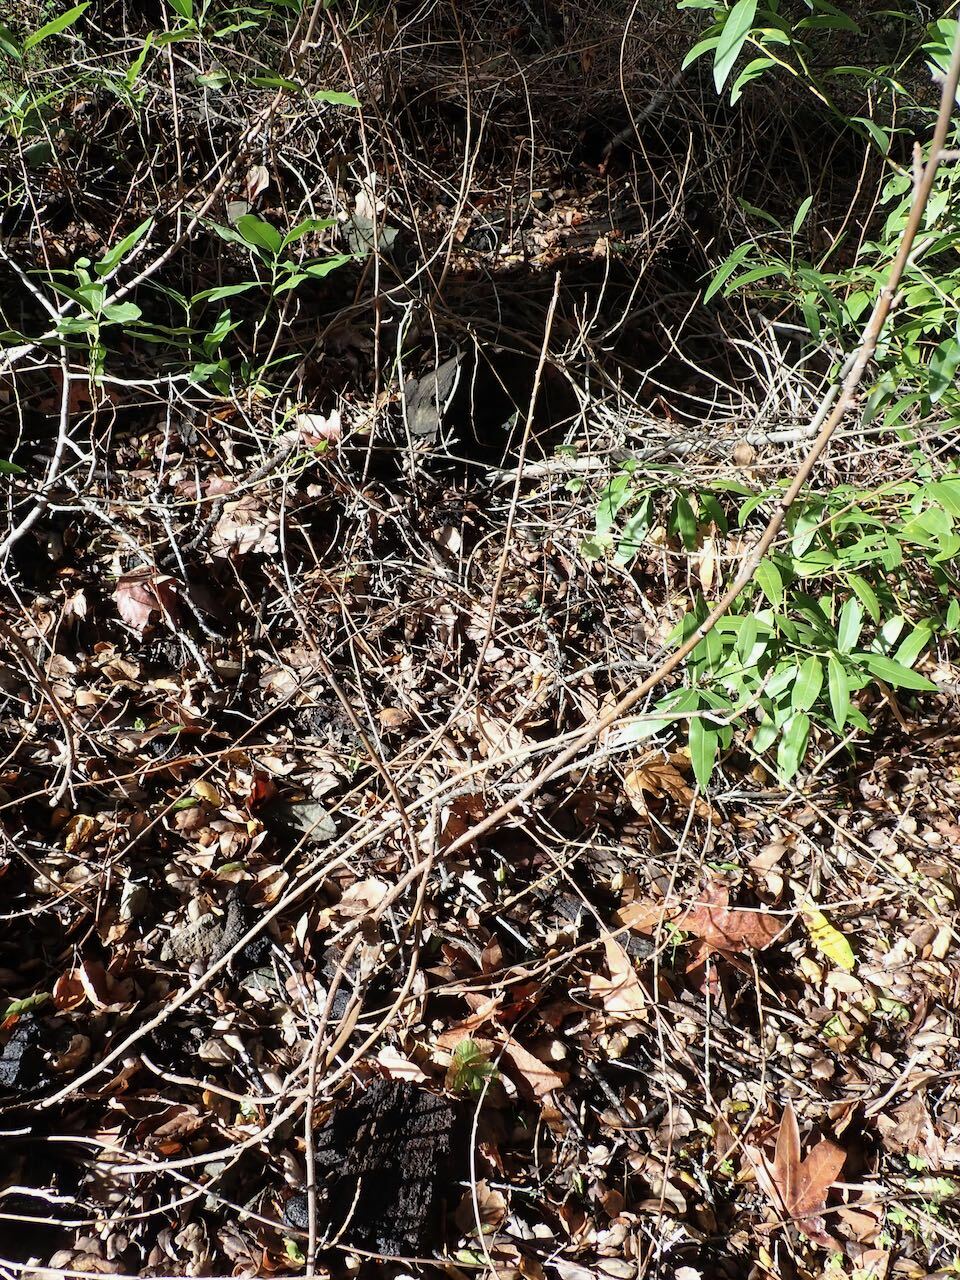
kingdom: Plantae
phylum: Tracheophyta
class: Magnoliopsida
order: Sapindales
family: Anacardiaceae
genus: Toxicodendron
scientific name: Toxicodendron diversilobum
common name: Pacific poison-oak
